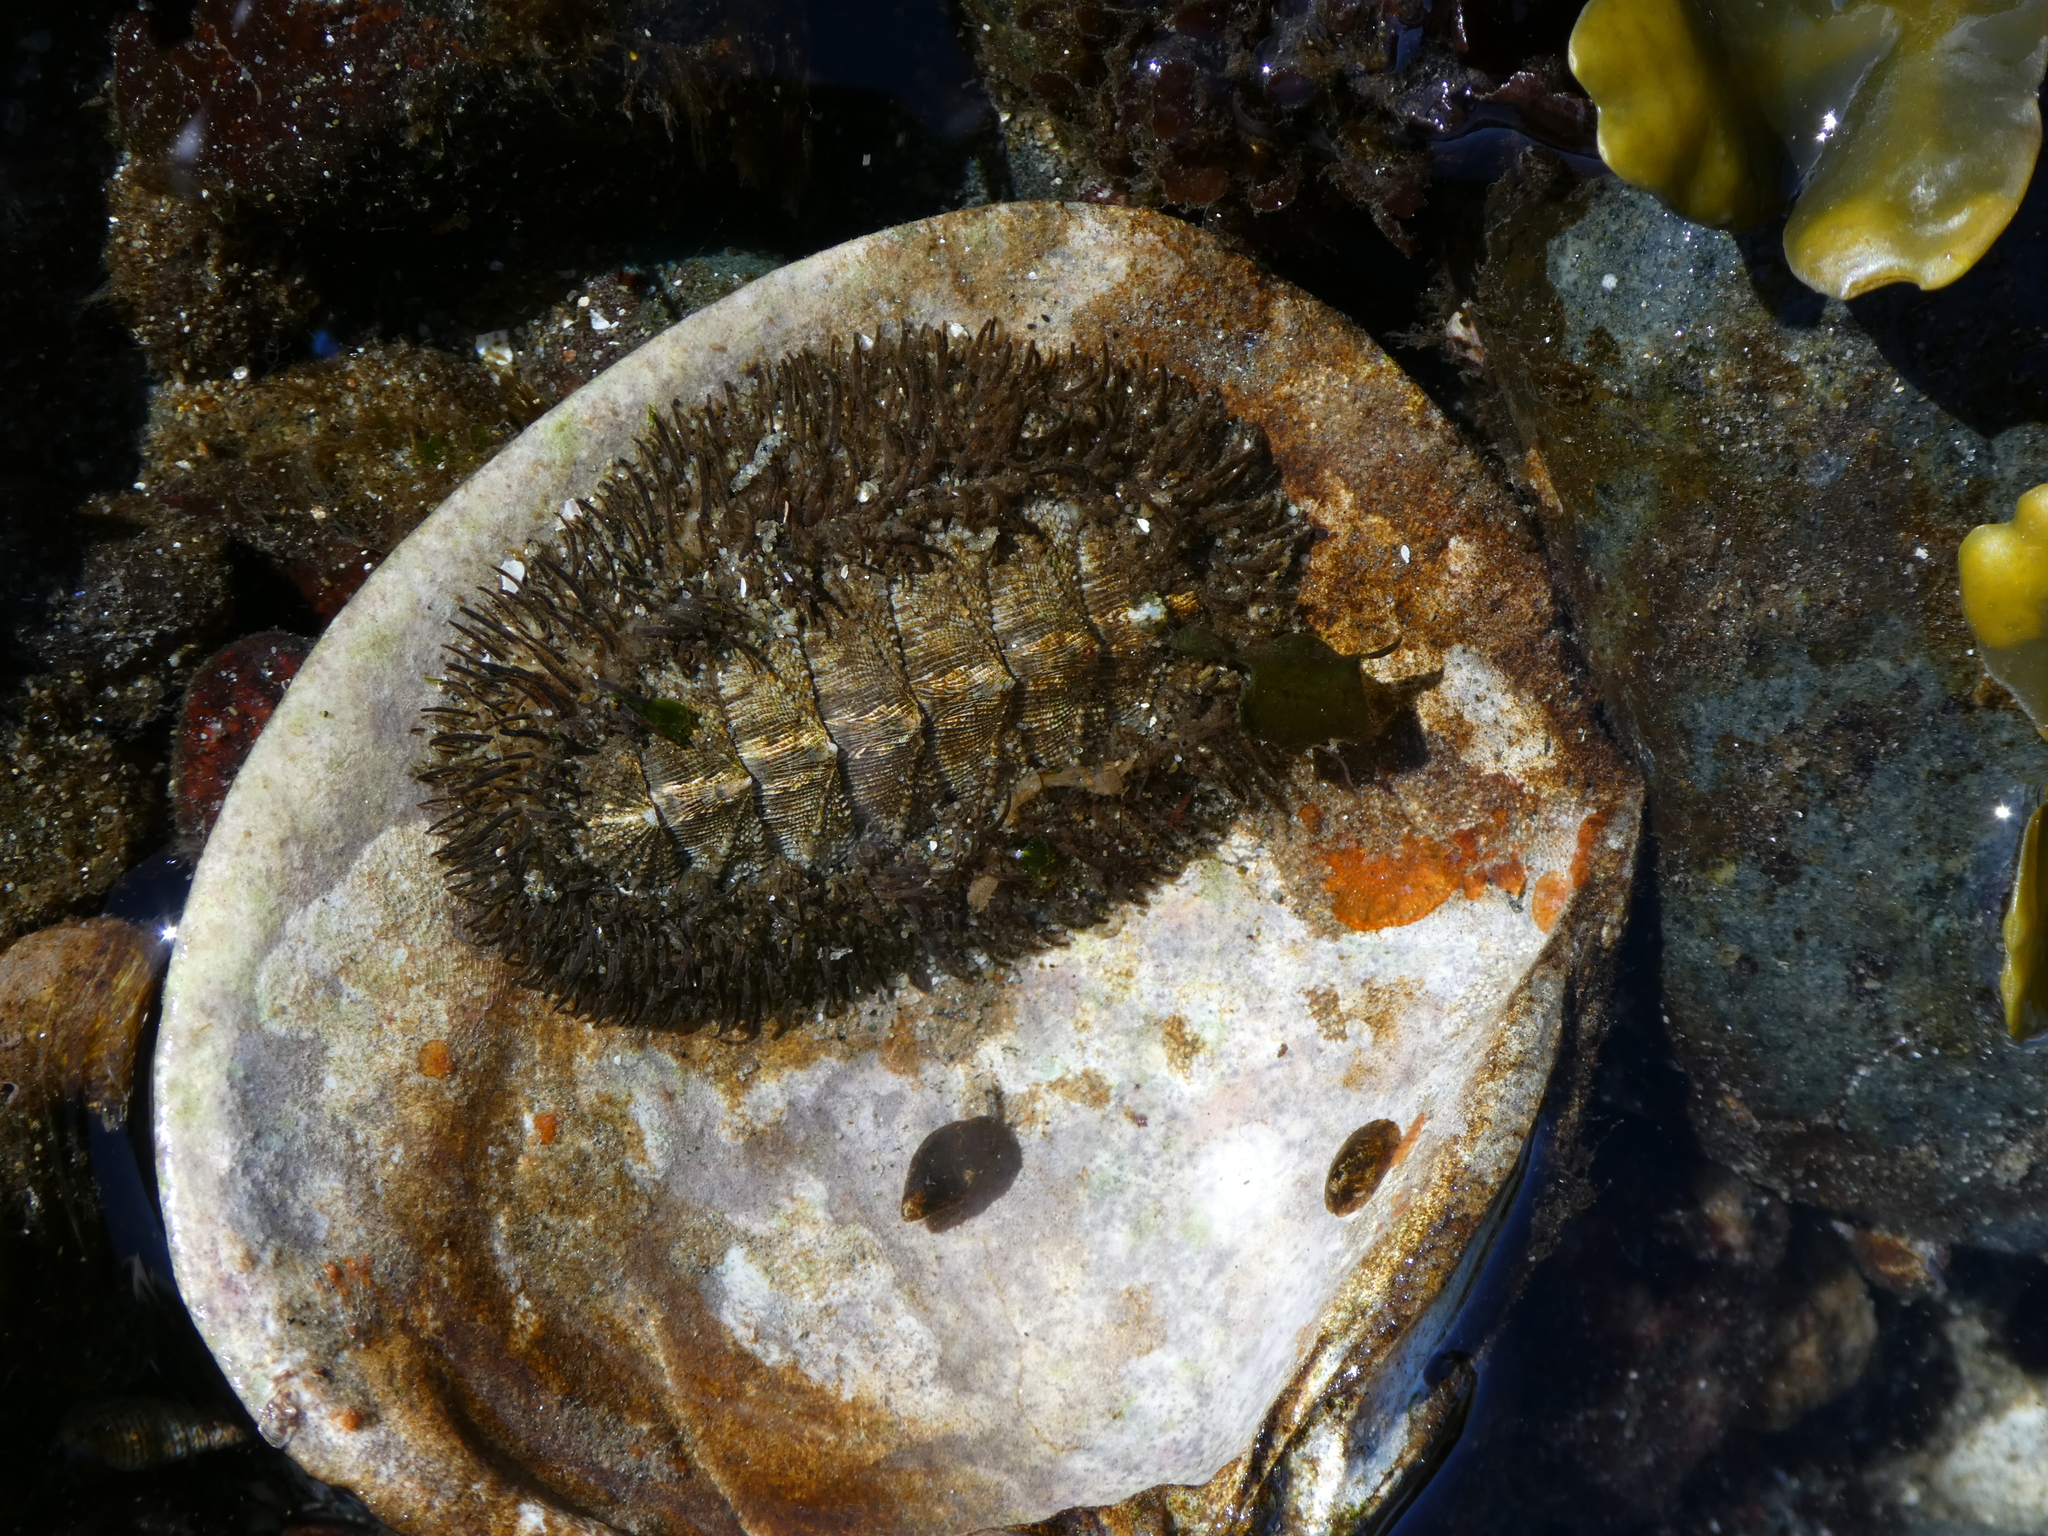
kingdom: Animalia
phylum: Mollusca
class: Polyplacophora
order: Chitonida
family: Mopaliidae
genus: Mopalia
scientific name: Mopalia muscosa
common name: Mossy chiton
